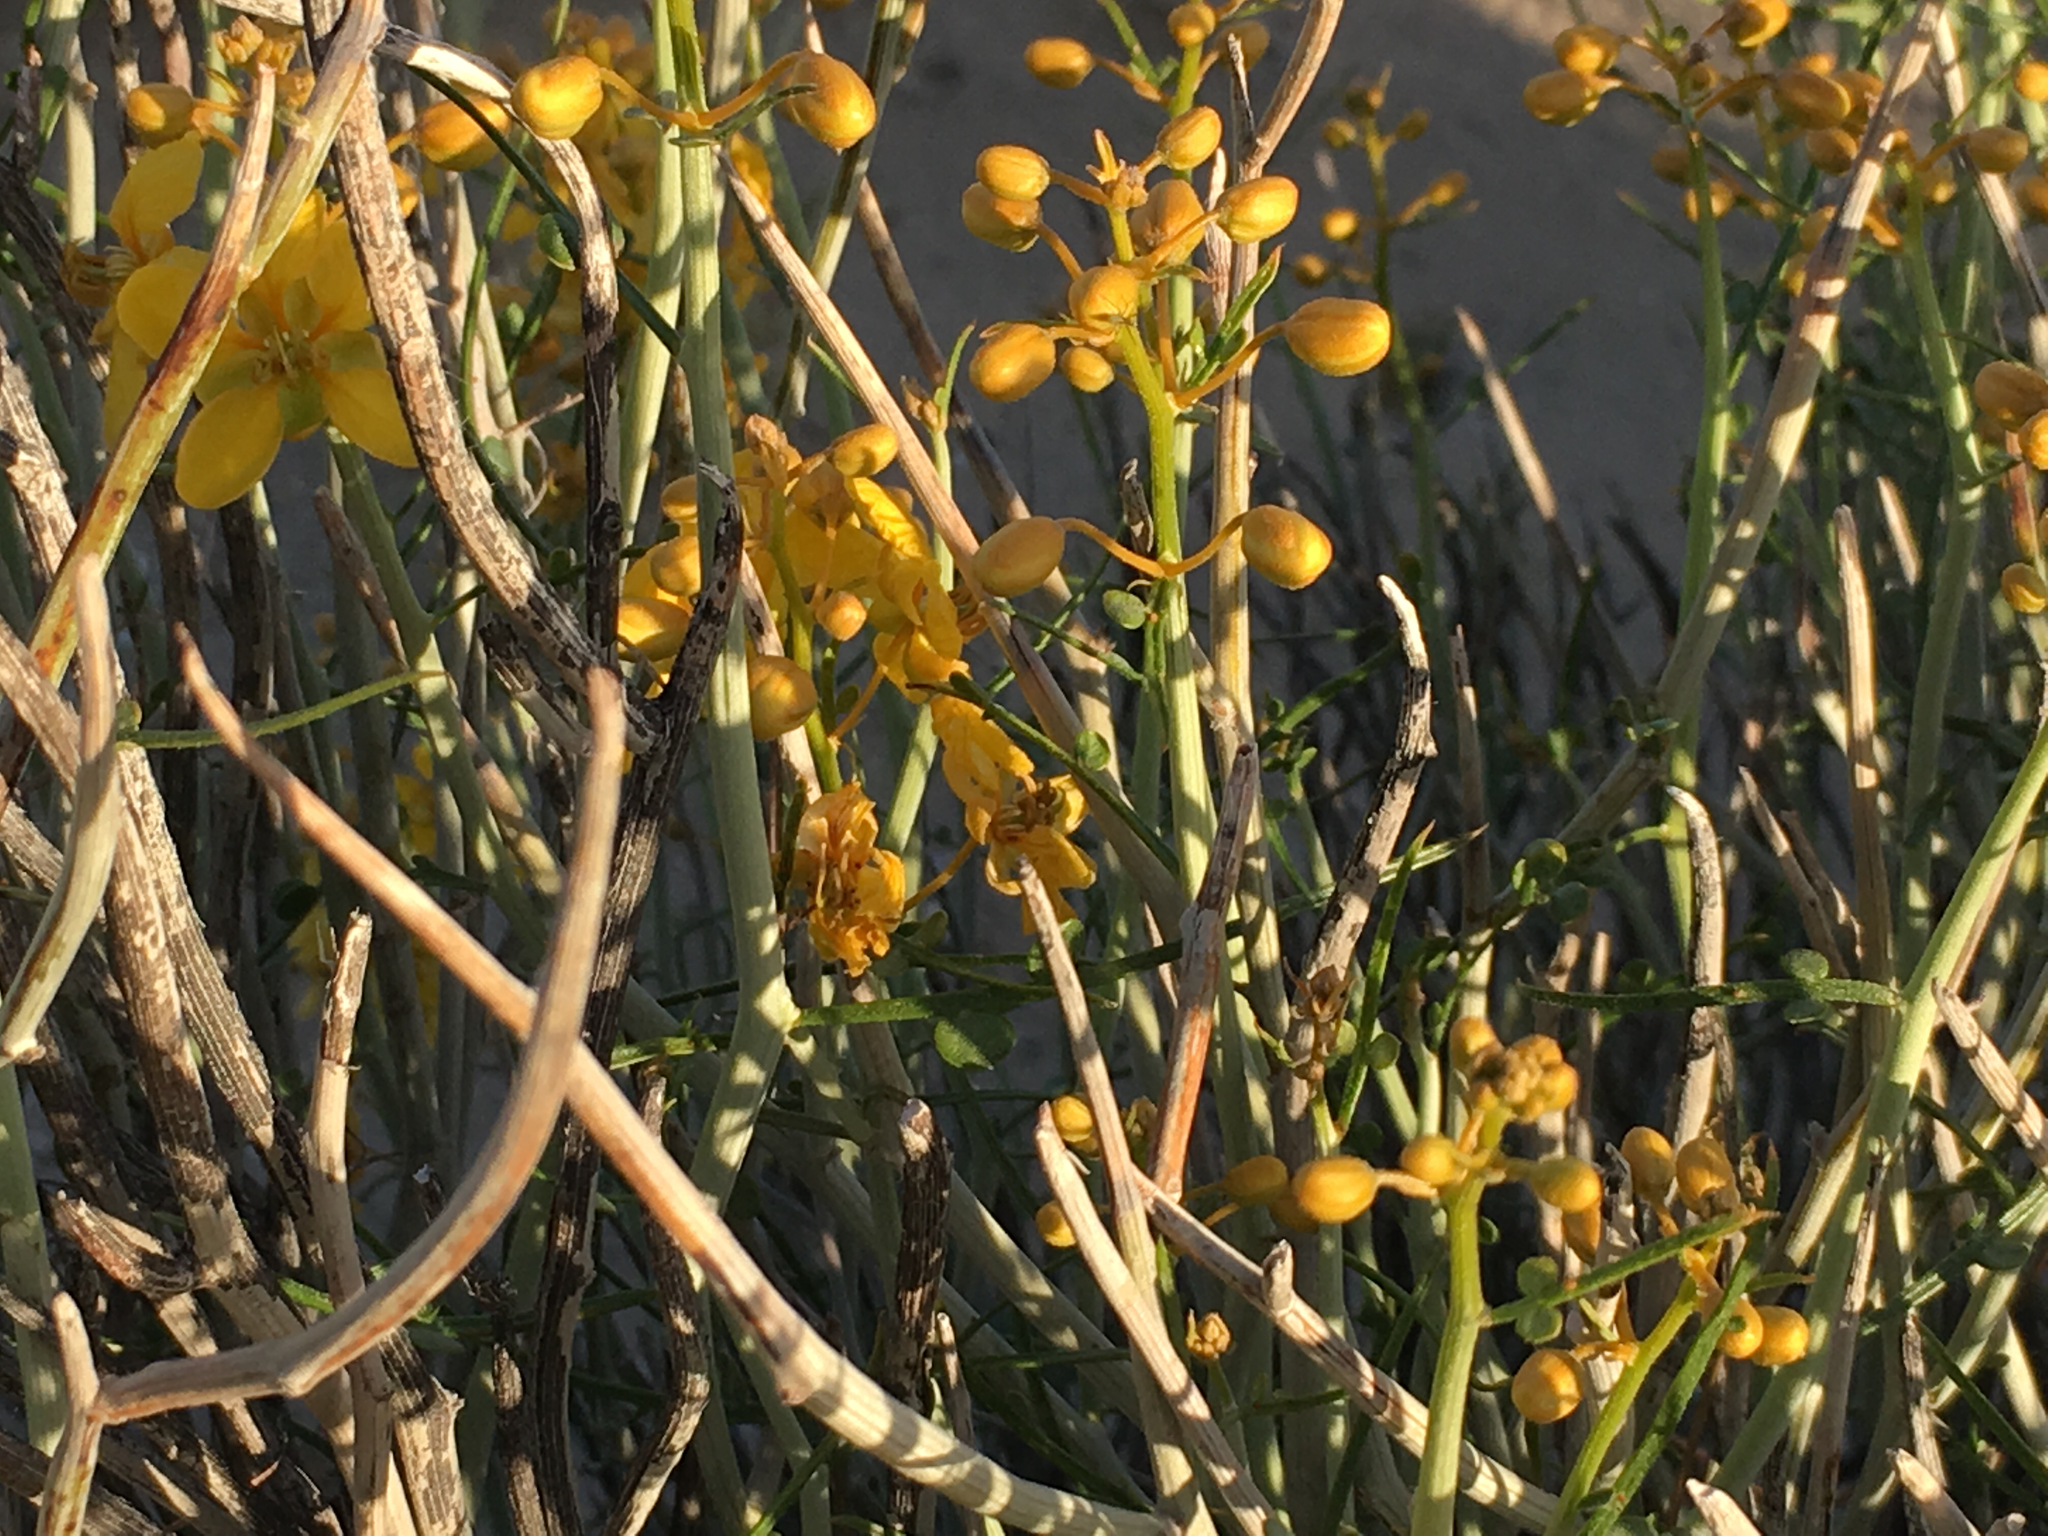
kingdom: Plantae
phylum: Tracheophyta
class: Magnoliopsida
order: Fabales
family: Fabaceae
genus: Senna
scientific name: Senna armata
